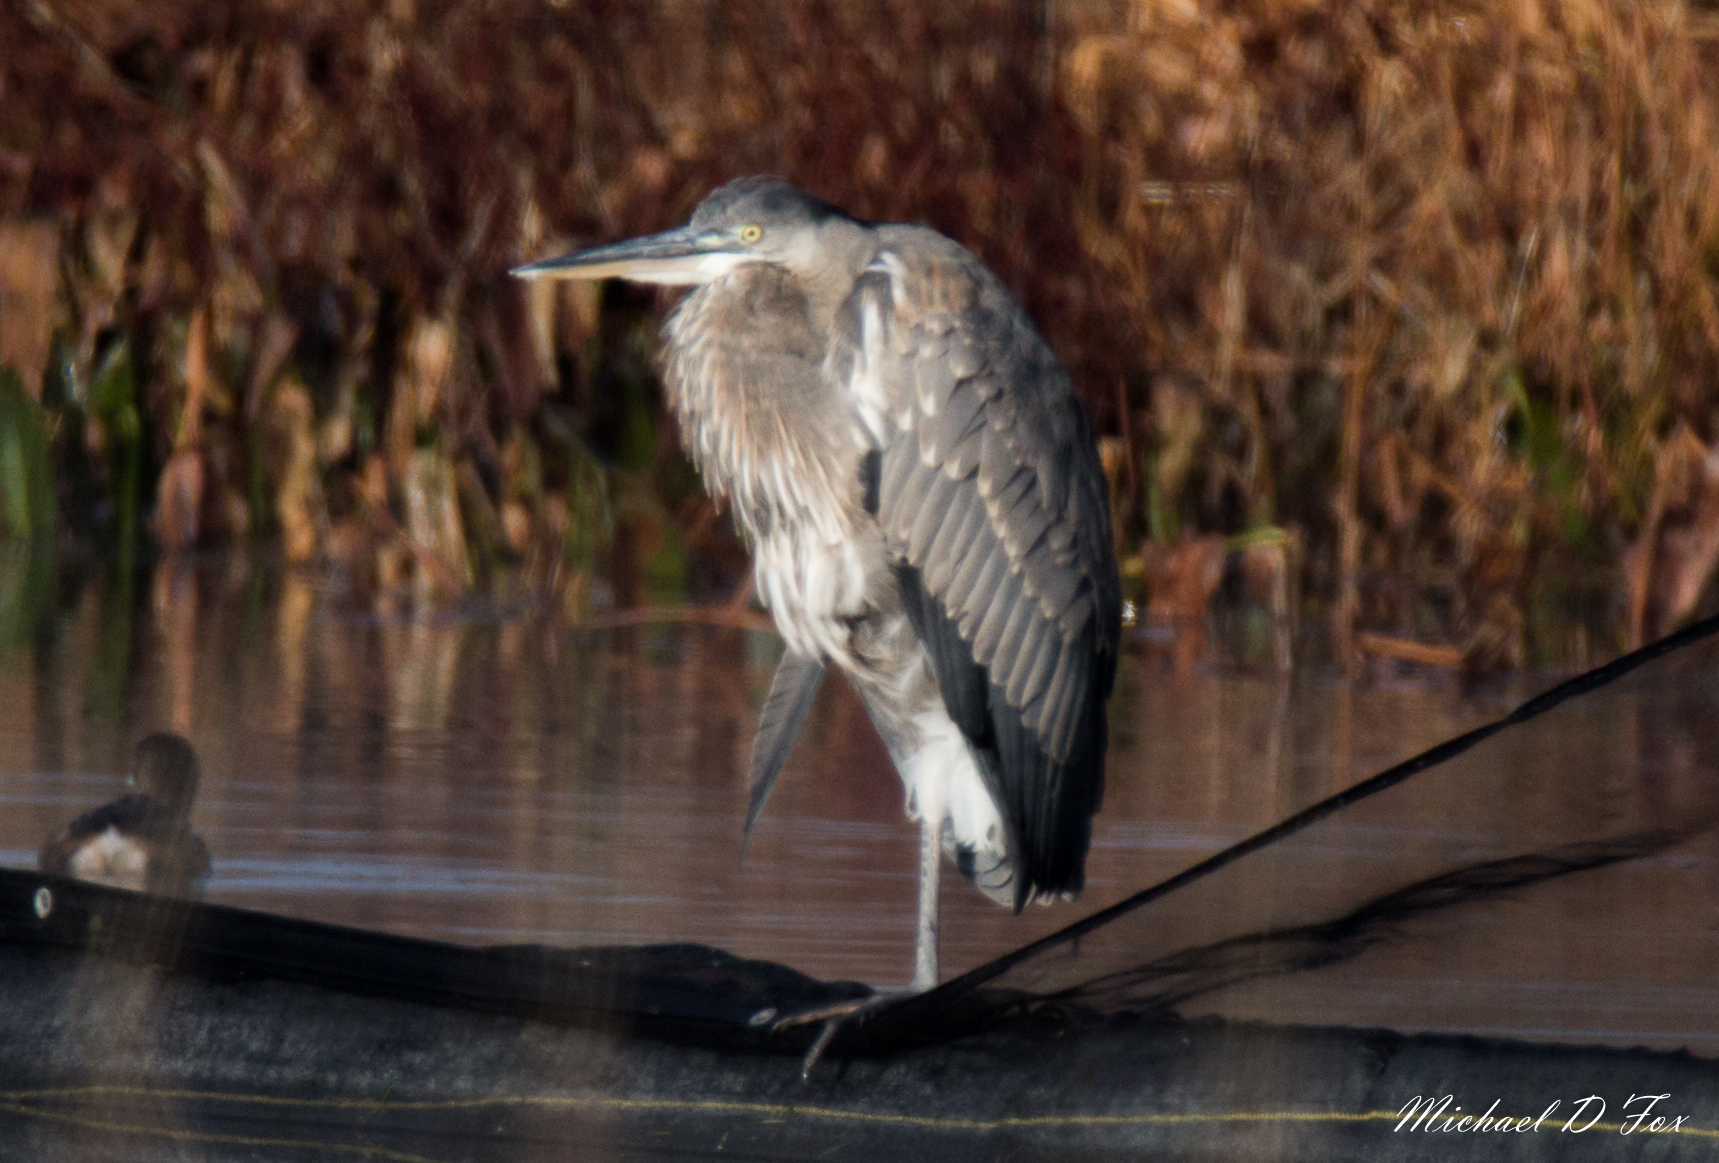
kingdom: Animalia
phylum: Chordata
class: Aves
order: Pelecaniformes
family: Ardeidae
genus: Ardea
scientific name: Ardea herodias
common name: Great blue heron
